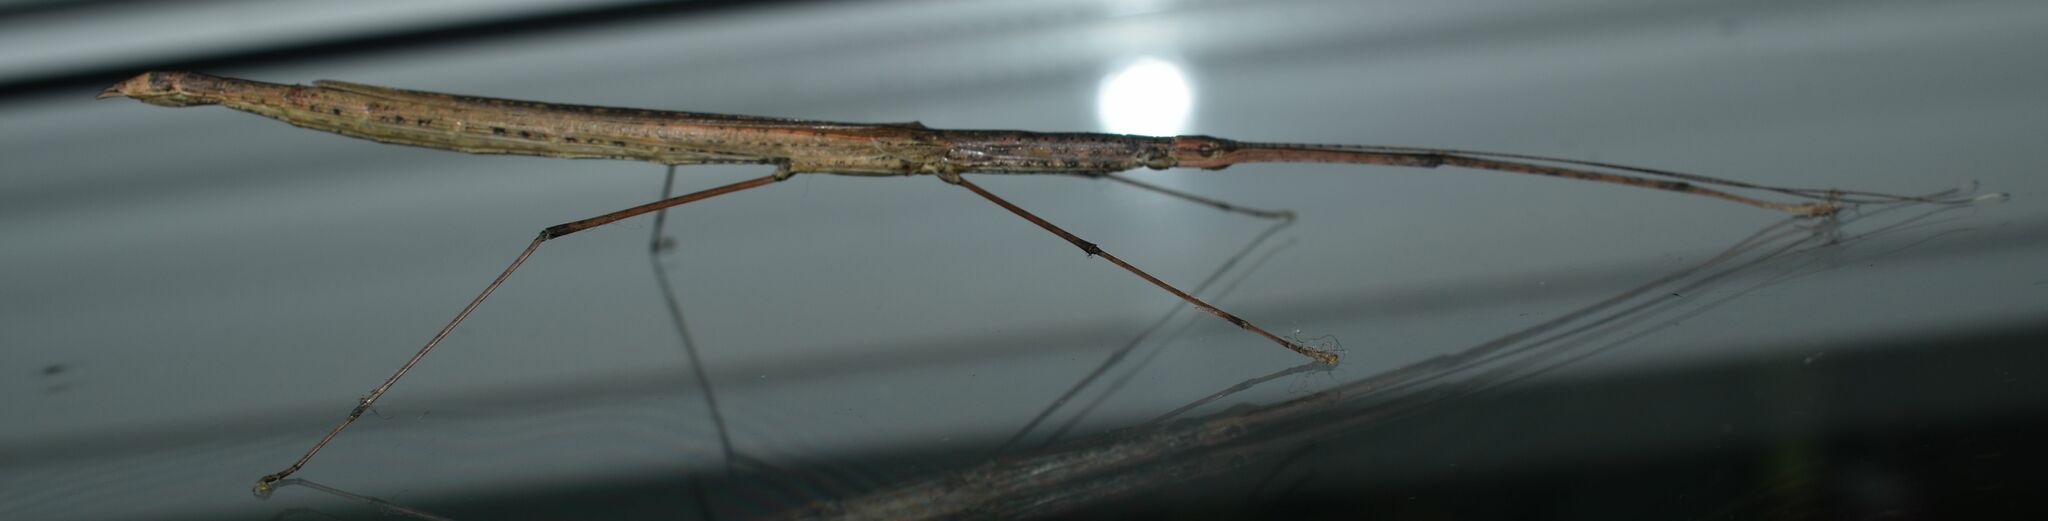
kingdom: Animalia
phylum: Arthropoda
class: Insecta
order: Phasmida
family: Lonchodidae
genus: Sipyloidea
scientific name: Sipyloidea larryi
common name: Hurricane larry stick-insect
